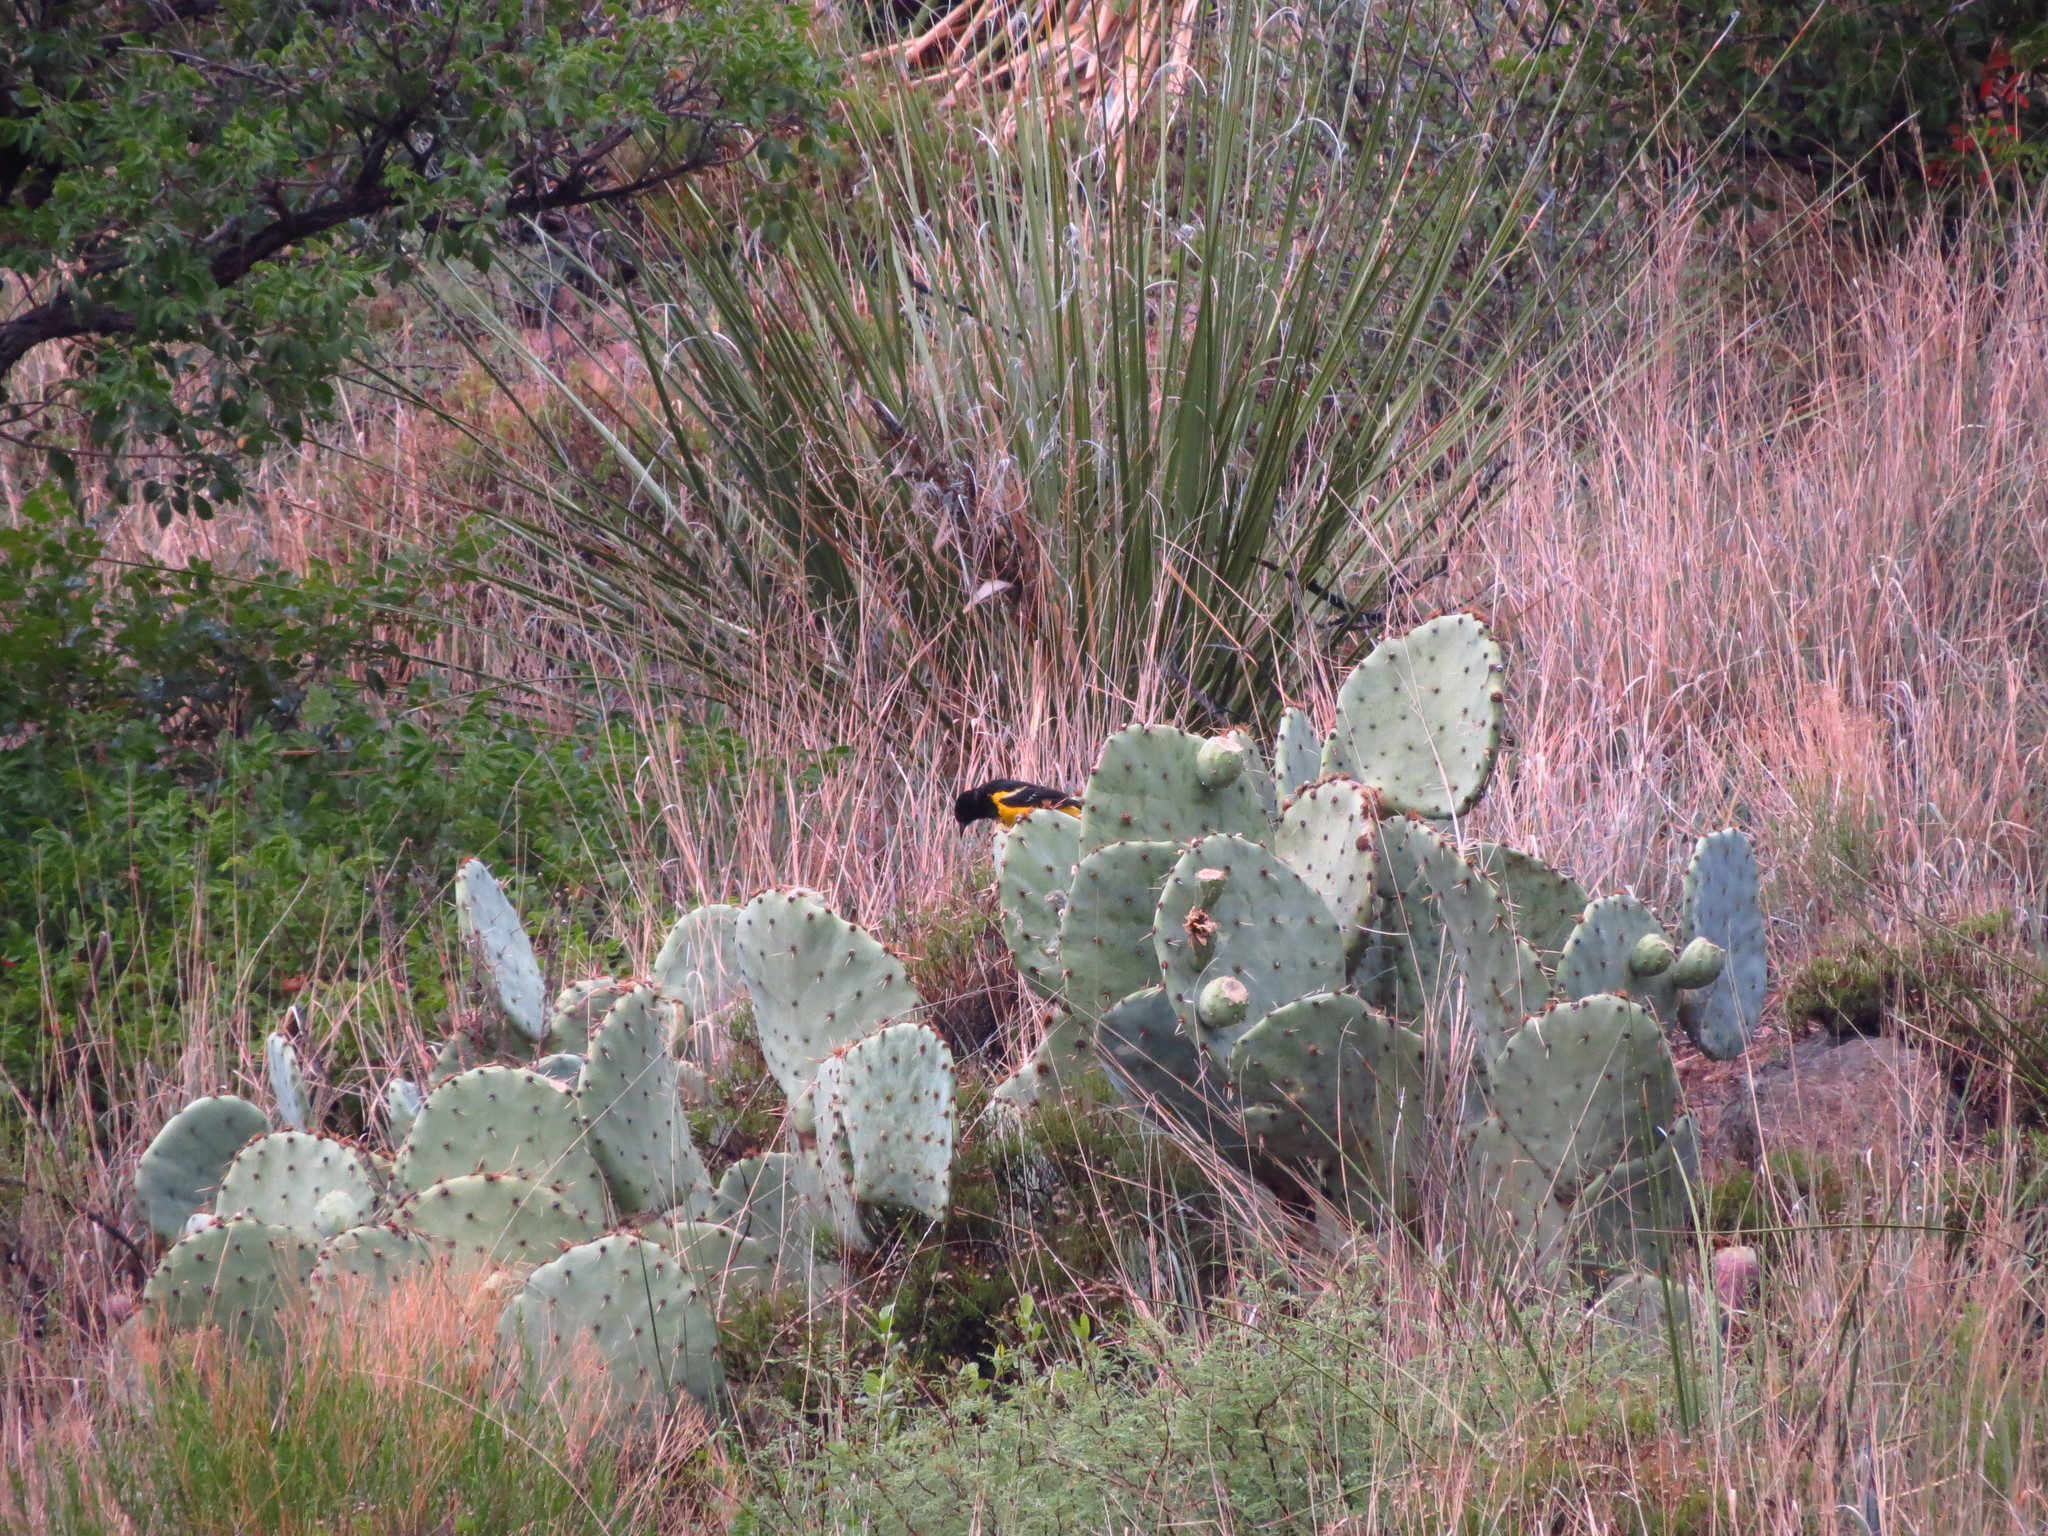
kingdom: Animalia
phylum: Chordata
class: Aves
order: Passeriformes
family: Icteridae
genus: Icterus
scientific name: Icterus parisorum
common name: Scott's oriole
